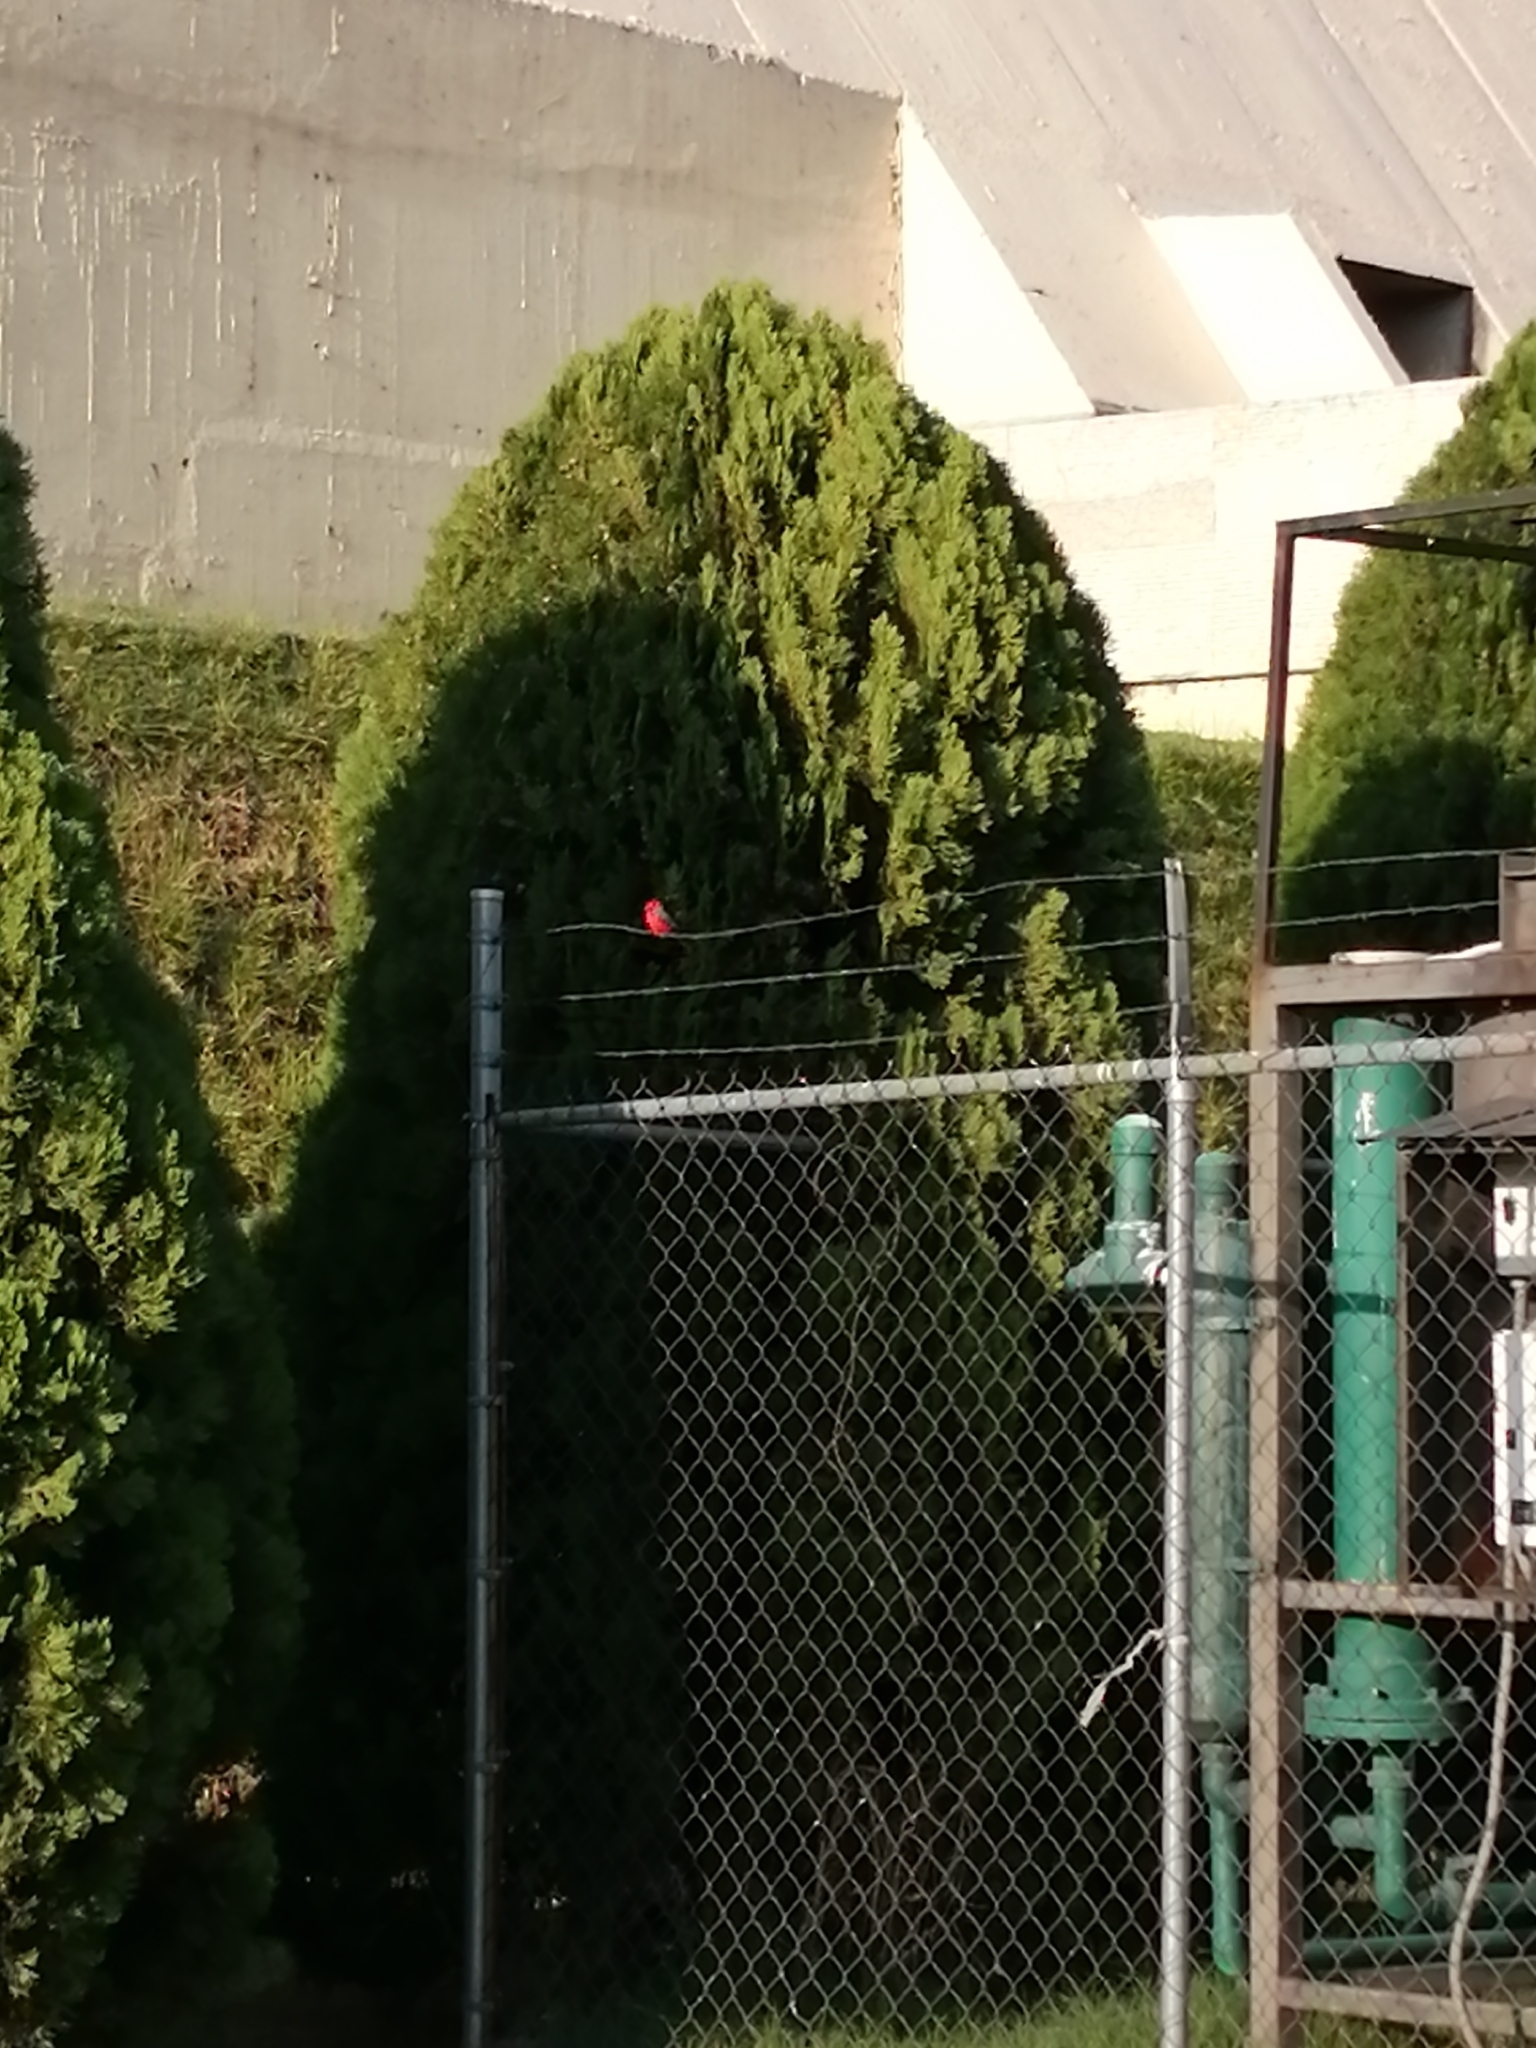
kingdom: Animalia
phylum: Chordata
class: Aves
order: Passeriformes
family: Tyrannidae
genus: Pyrocephalus
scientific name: Pyrocephalus rubinus
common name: Vermilion flycatcher
